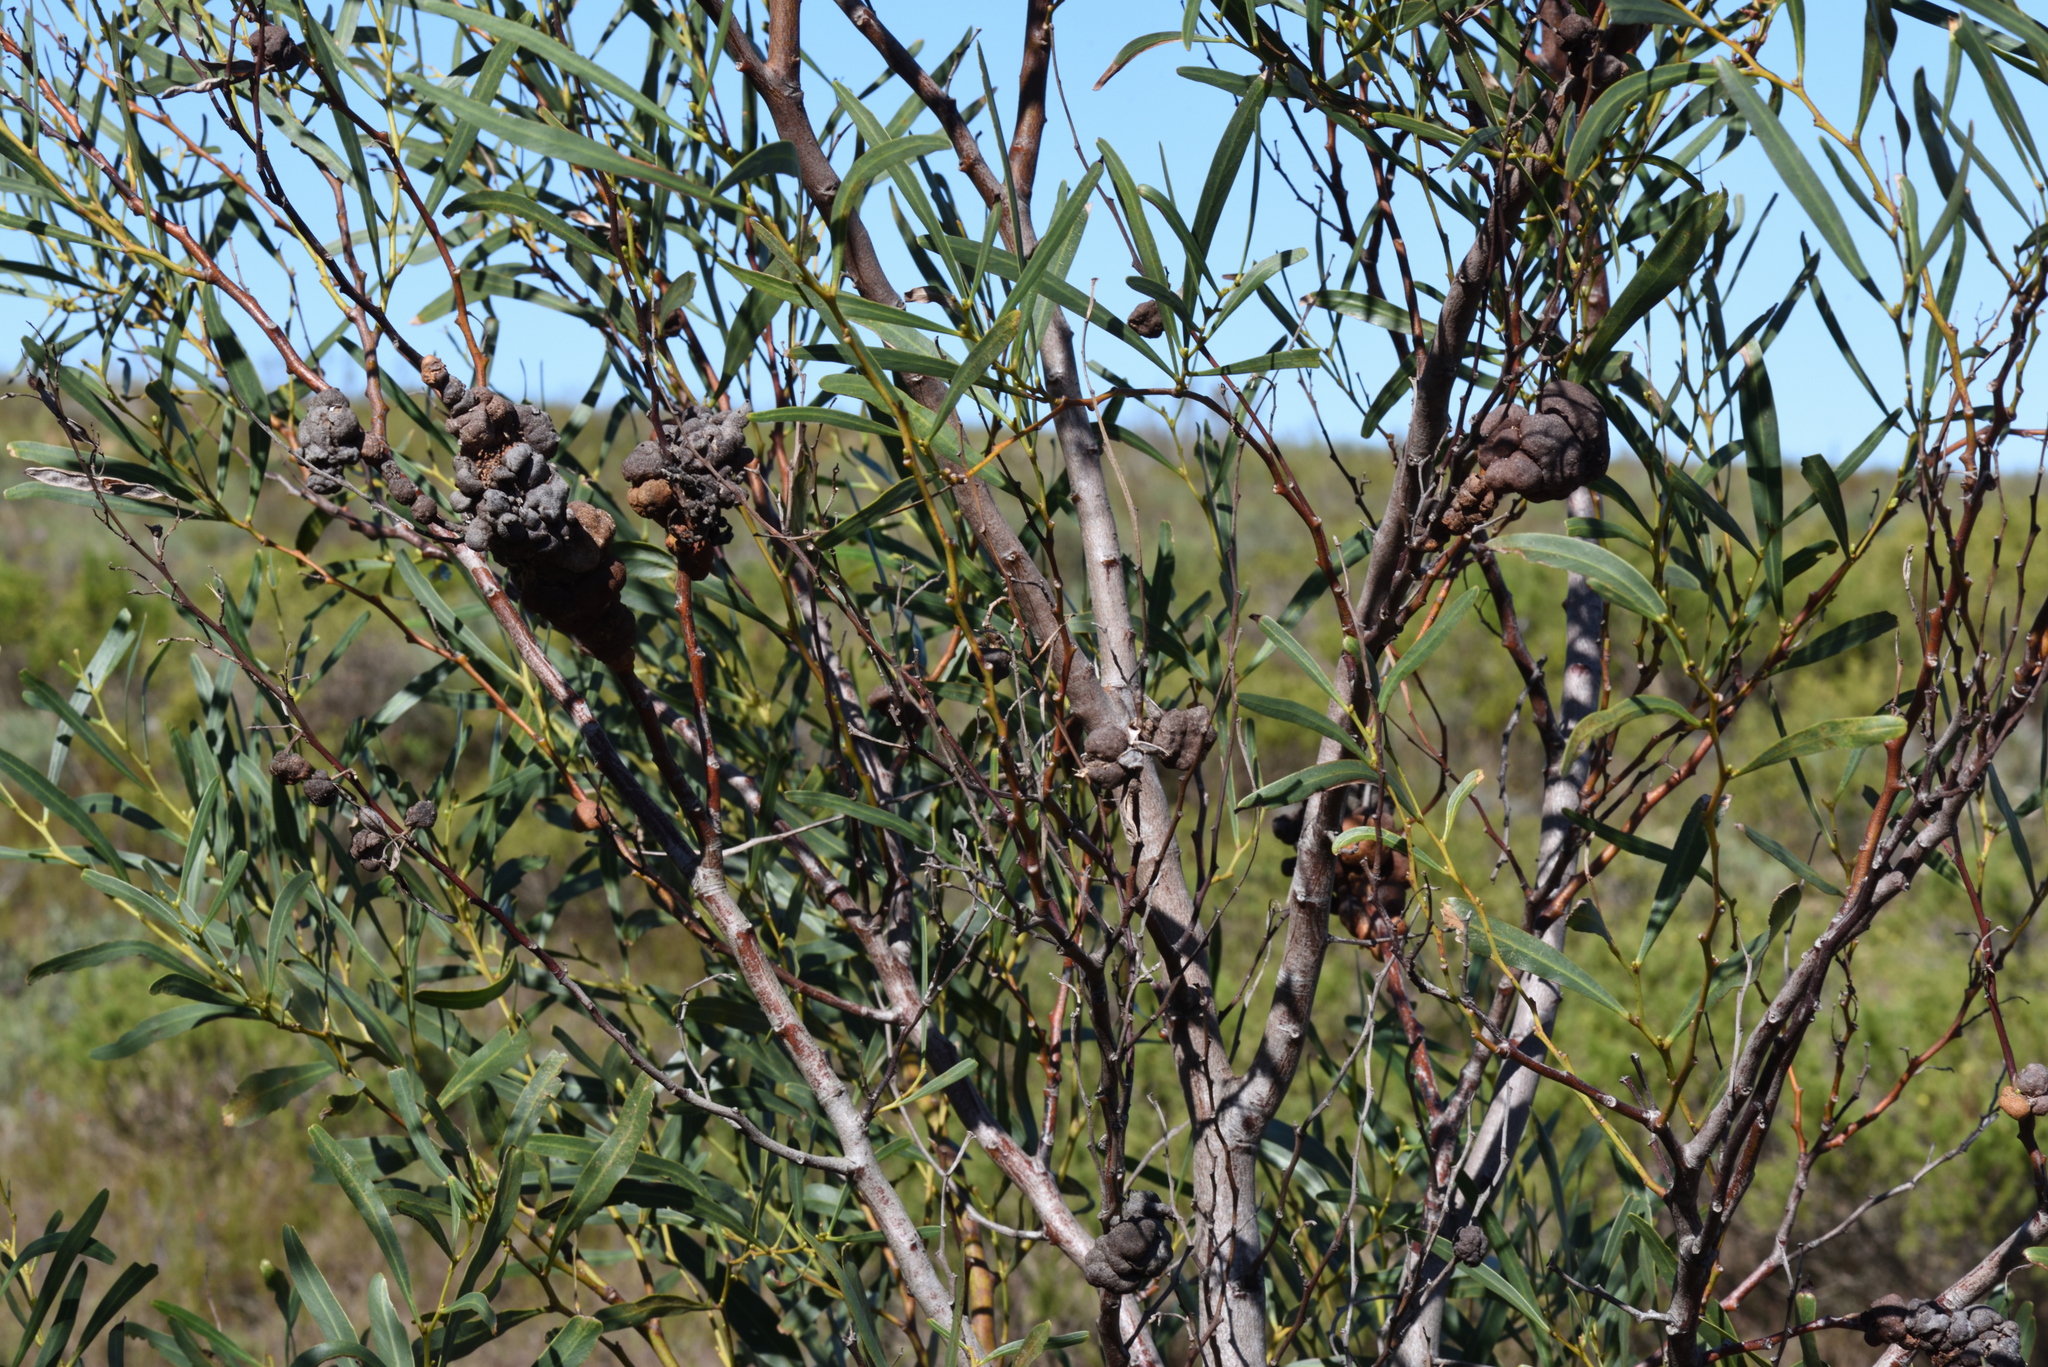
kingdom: Plantae
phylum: Tracheophyta
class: Magnoliopsida
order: Fabales
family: Fabaceae
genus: Acacia
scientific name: Acacia saligna
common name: Orange wattle
